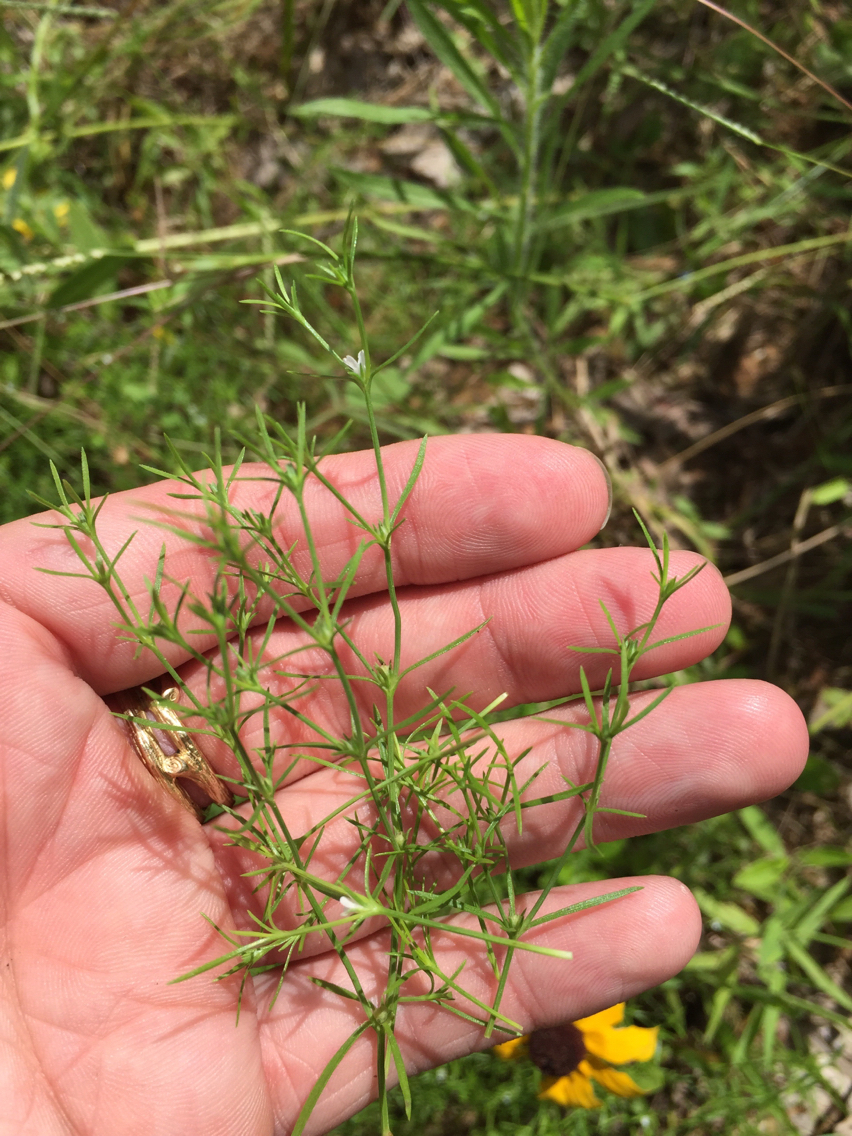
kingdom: Plantae
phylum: Tracheophyta
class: Magnoliopsida
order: Lamiales
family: Tetrachondraceae
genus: Polypremum
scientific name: Polypremum procumbens
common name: Juniper-leaf
